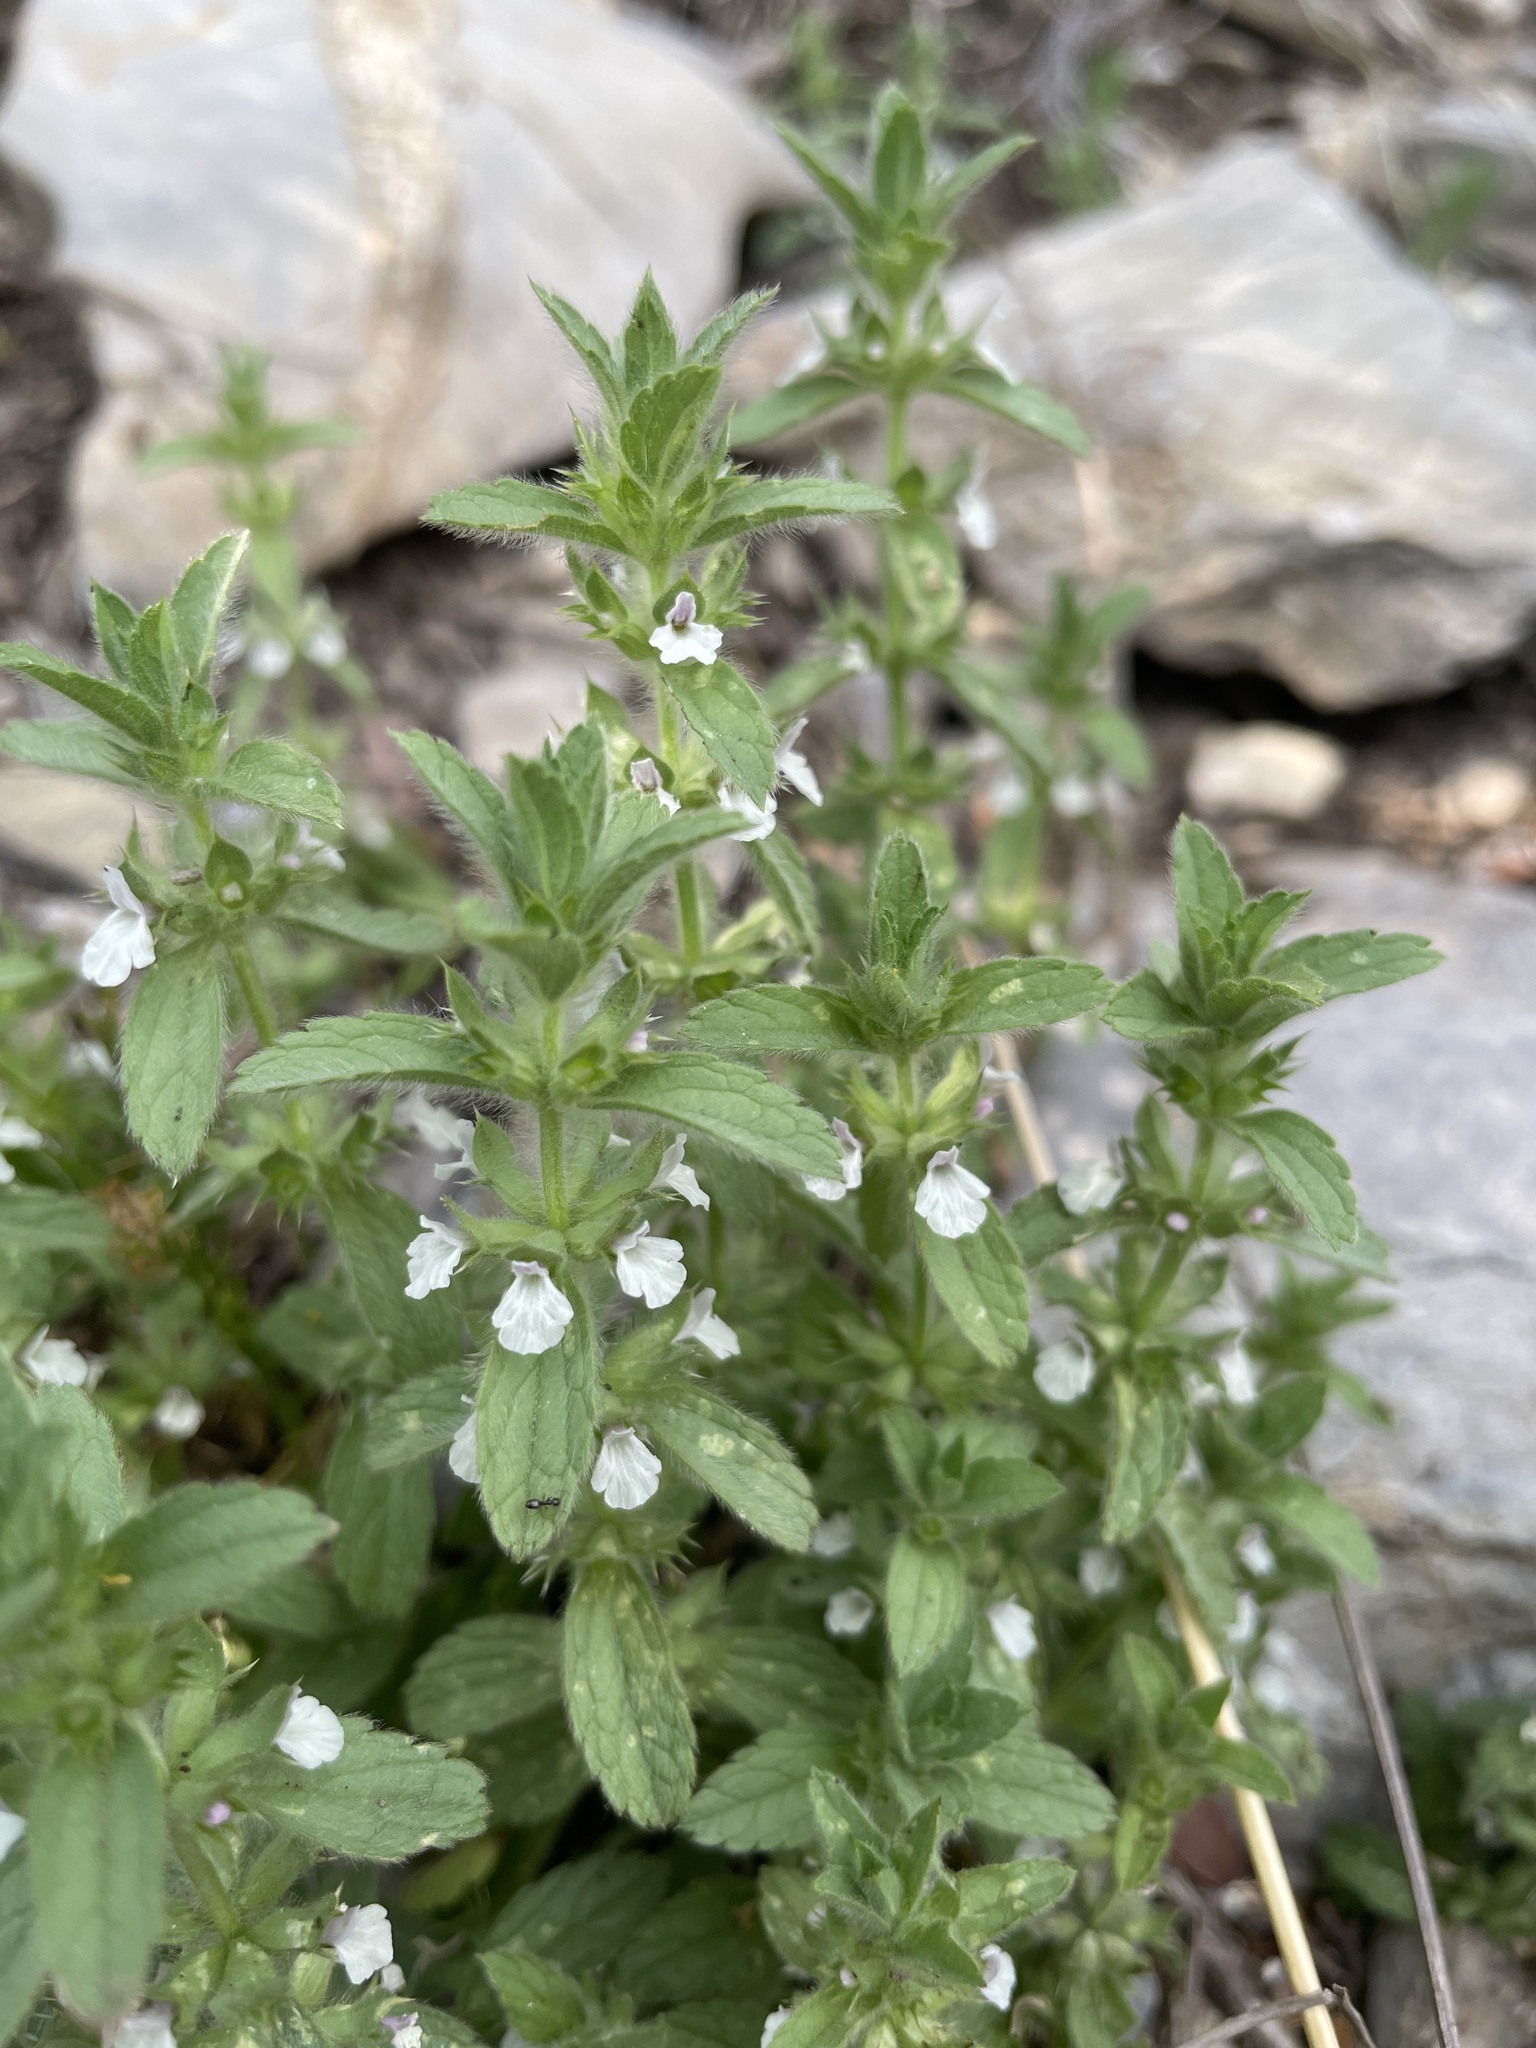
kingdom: Plantae
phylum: Tracheophyta
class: Magnoliopsida
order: Lamiales
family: Lamiaceae
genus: Sideritis
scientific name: Sideritis romana
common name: Simplebeak ironwort
